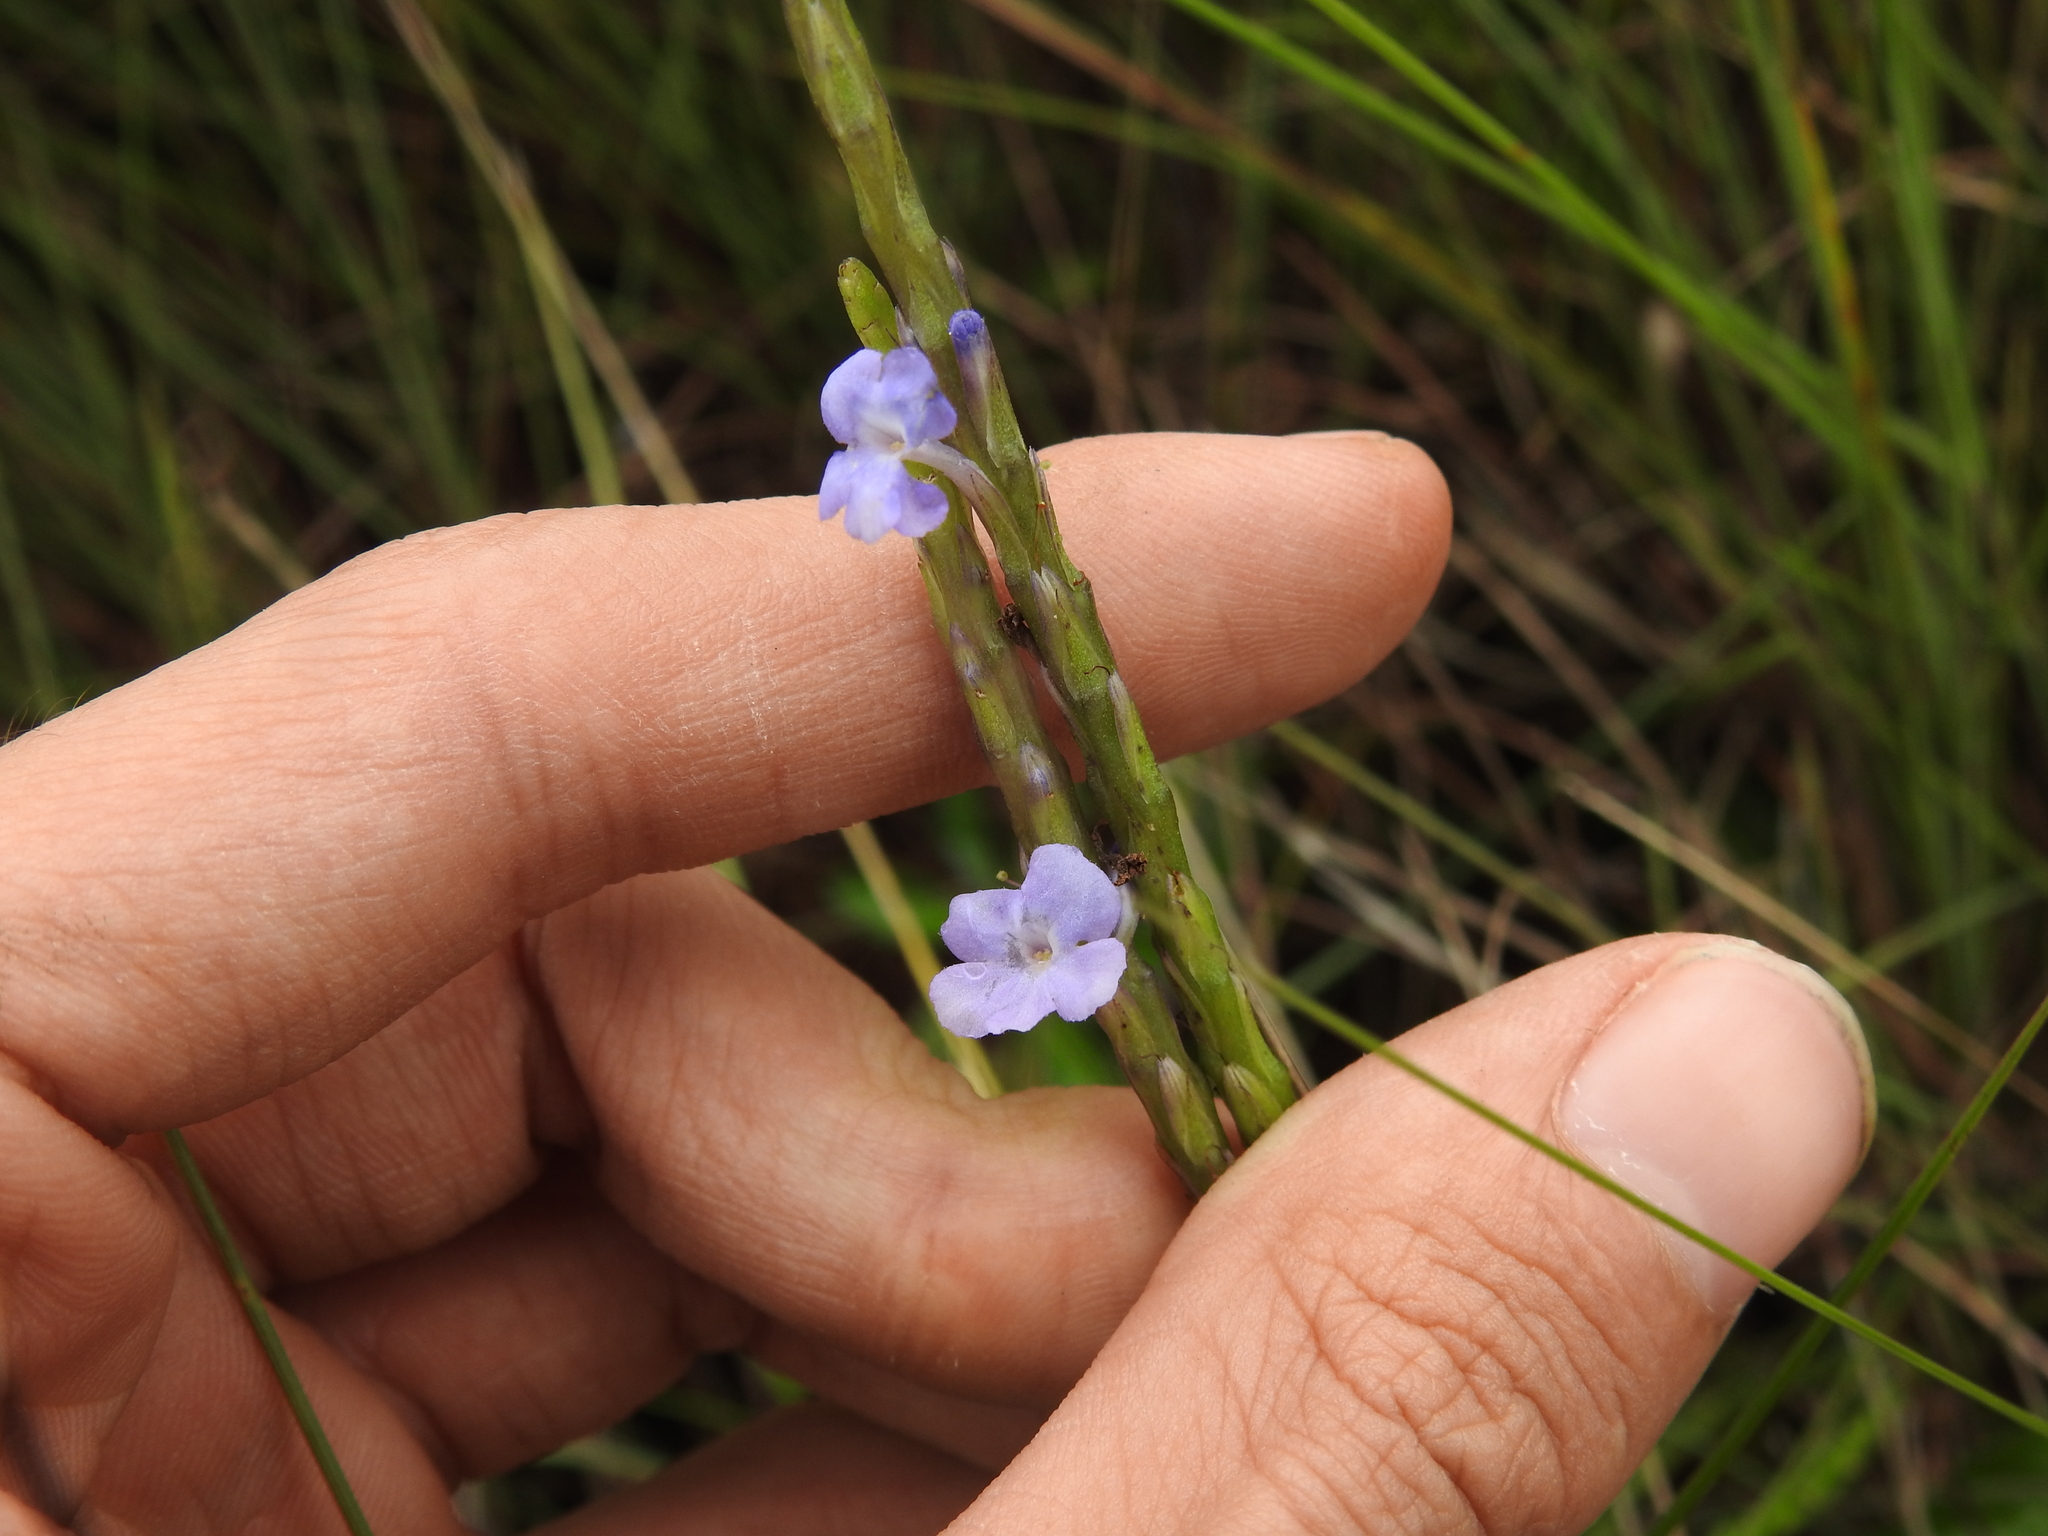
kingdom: Plantae
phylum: Tracheophyta
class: Magnoliopsida
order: Lamiales
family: Verbenaceae
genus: Stachytarpheta
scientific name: Stachytarpheta jamaicensis
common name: Light-blue snakeweed
